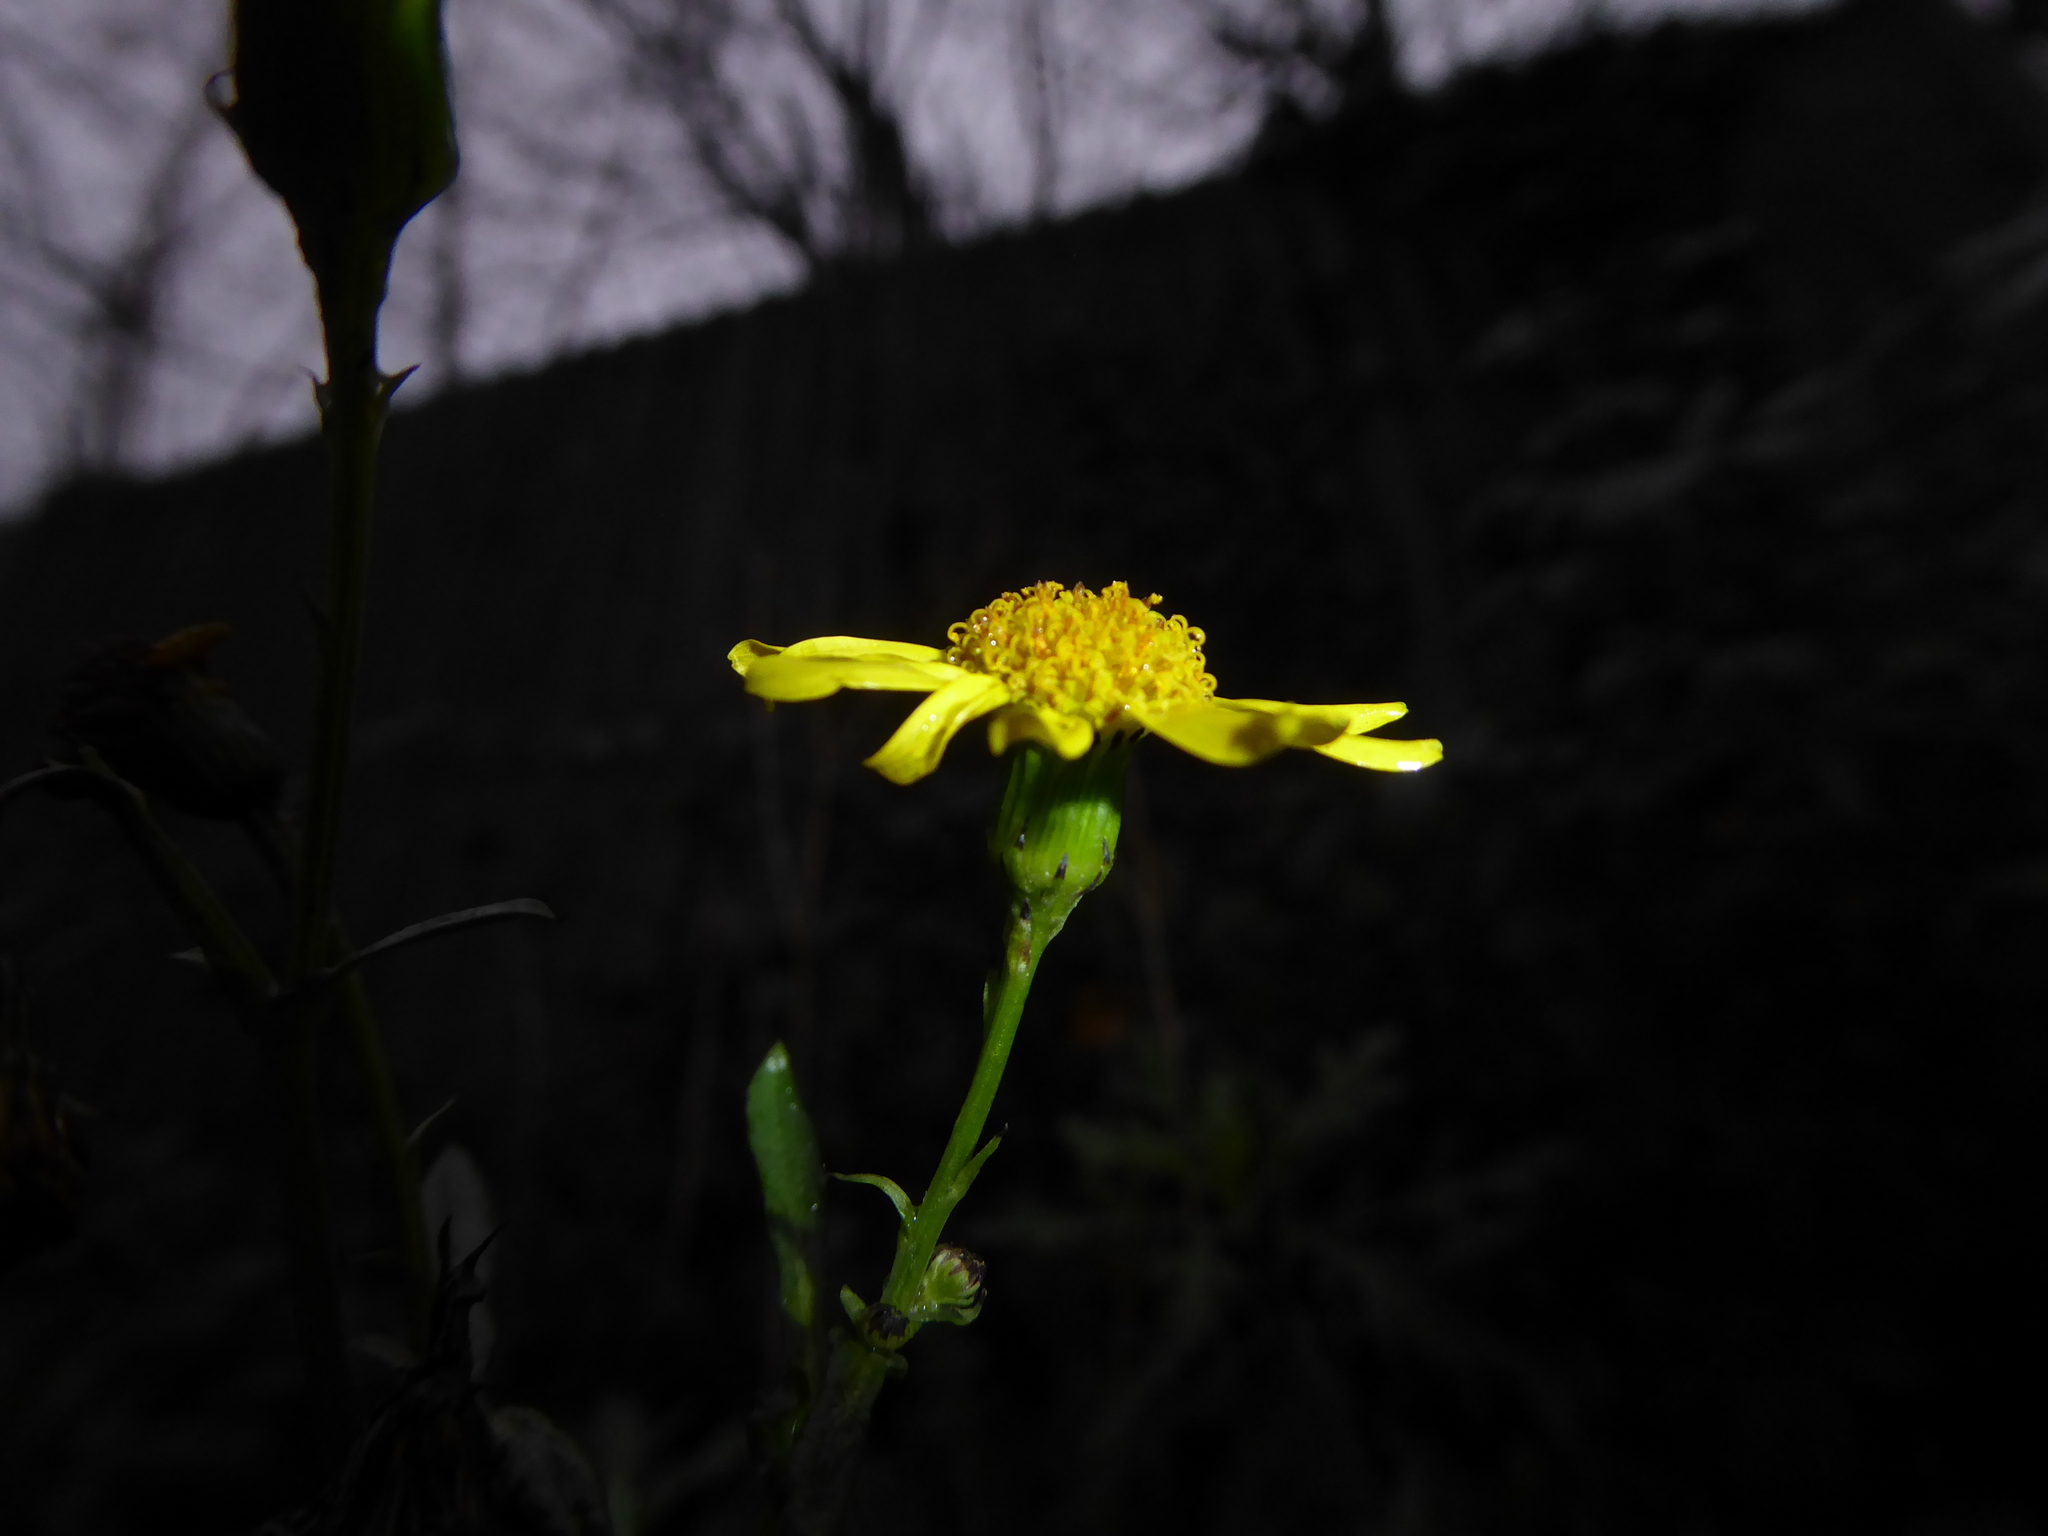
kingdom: Plantae
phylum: Tracheophyta
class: Magnoliopsida
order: Asterales
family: Asteraceae
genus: Senecio
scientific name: Senecio squalidus
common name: Oxford ragwort
